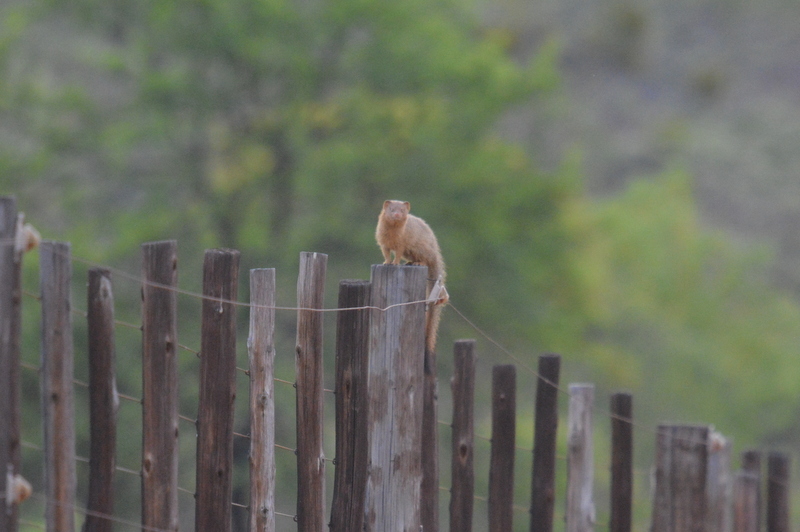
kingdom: Animalia
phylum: Chordata
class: Mammalia
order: Carnivora
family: Herpestidae
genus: Galerella
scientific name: Galerella sanguinea
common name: Slender mongoose
